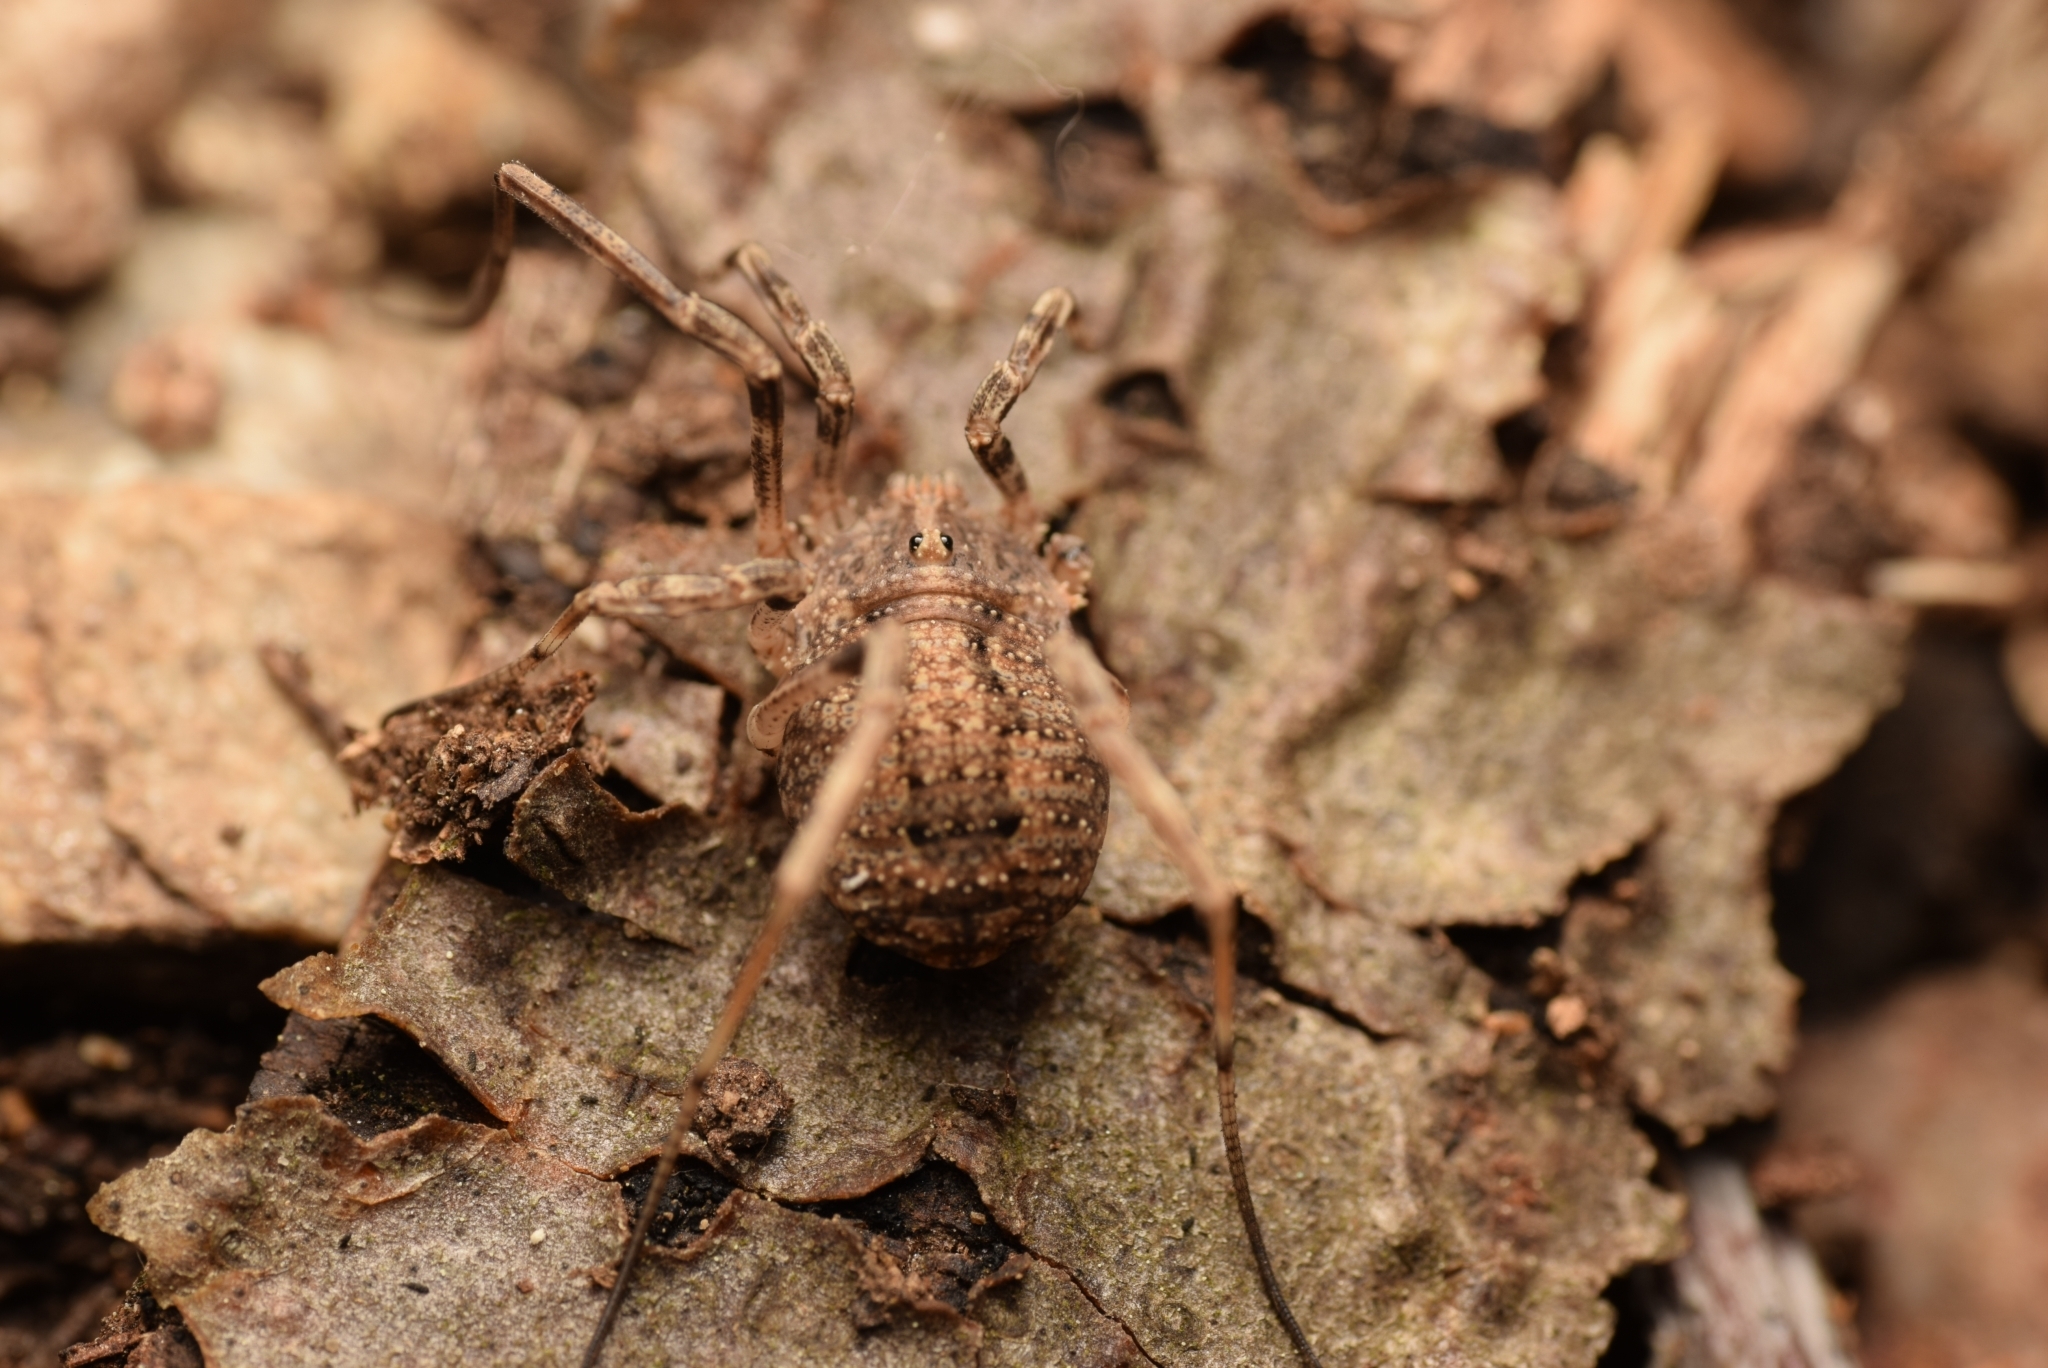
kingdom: Animalia
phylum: Arthropoda
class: Arachnida
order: Opiliones
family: Phalangiidae
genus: Odiellus
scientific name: Odiellus spinosus
